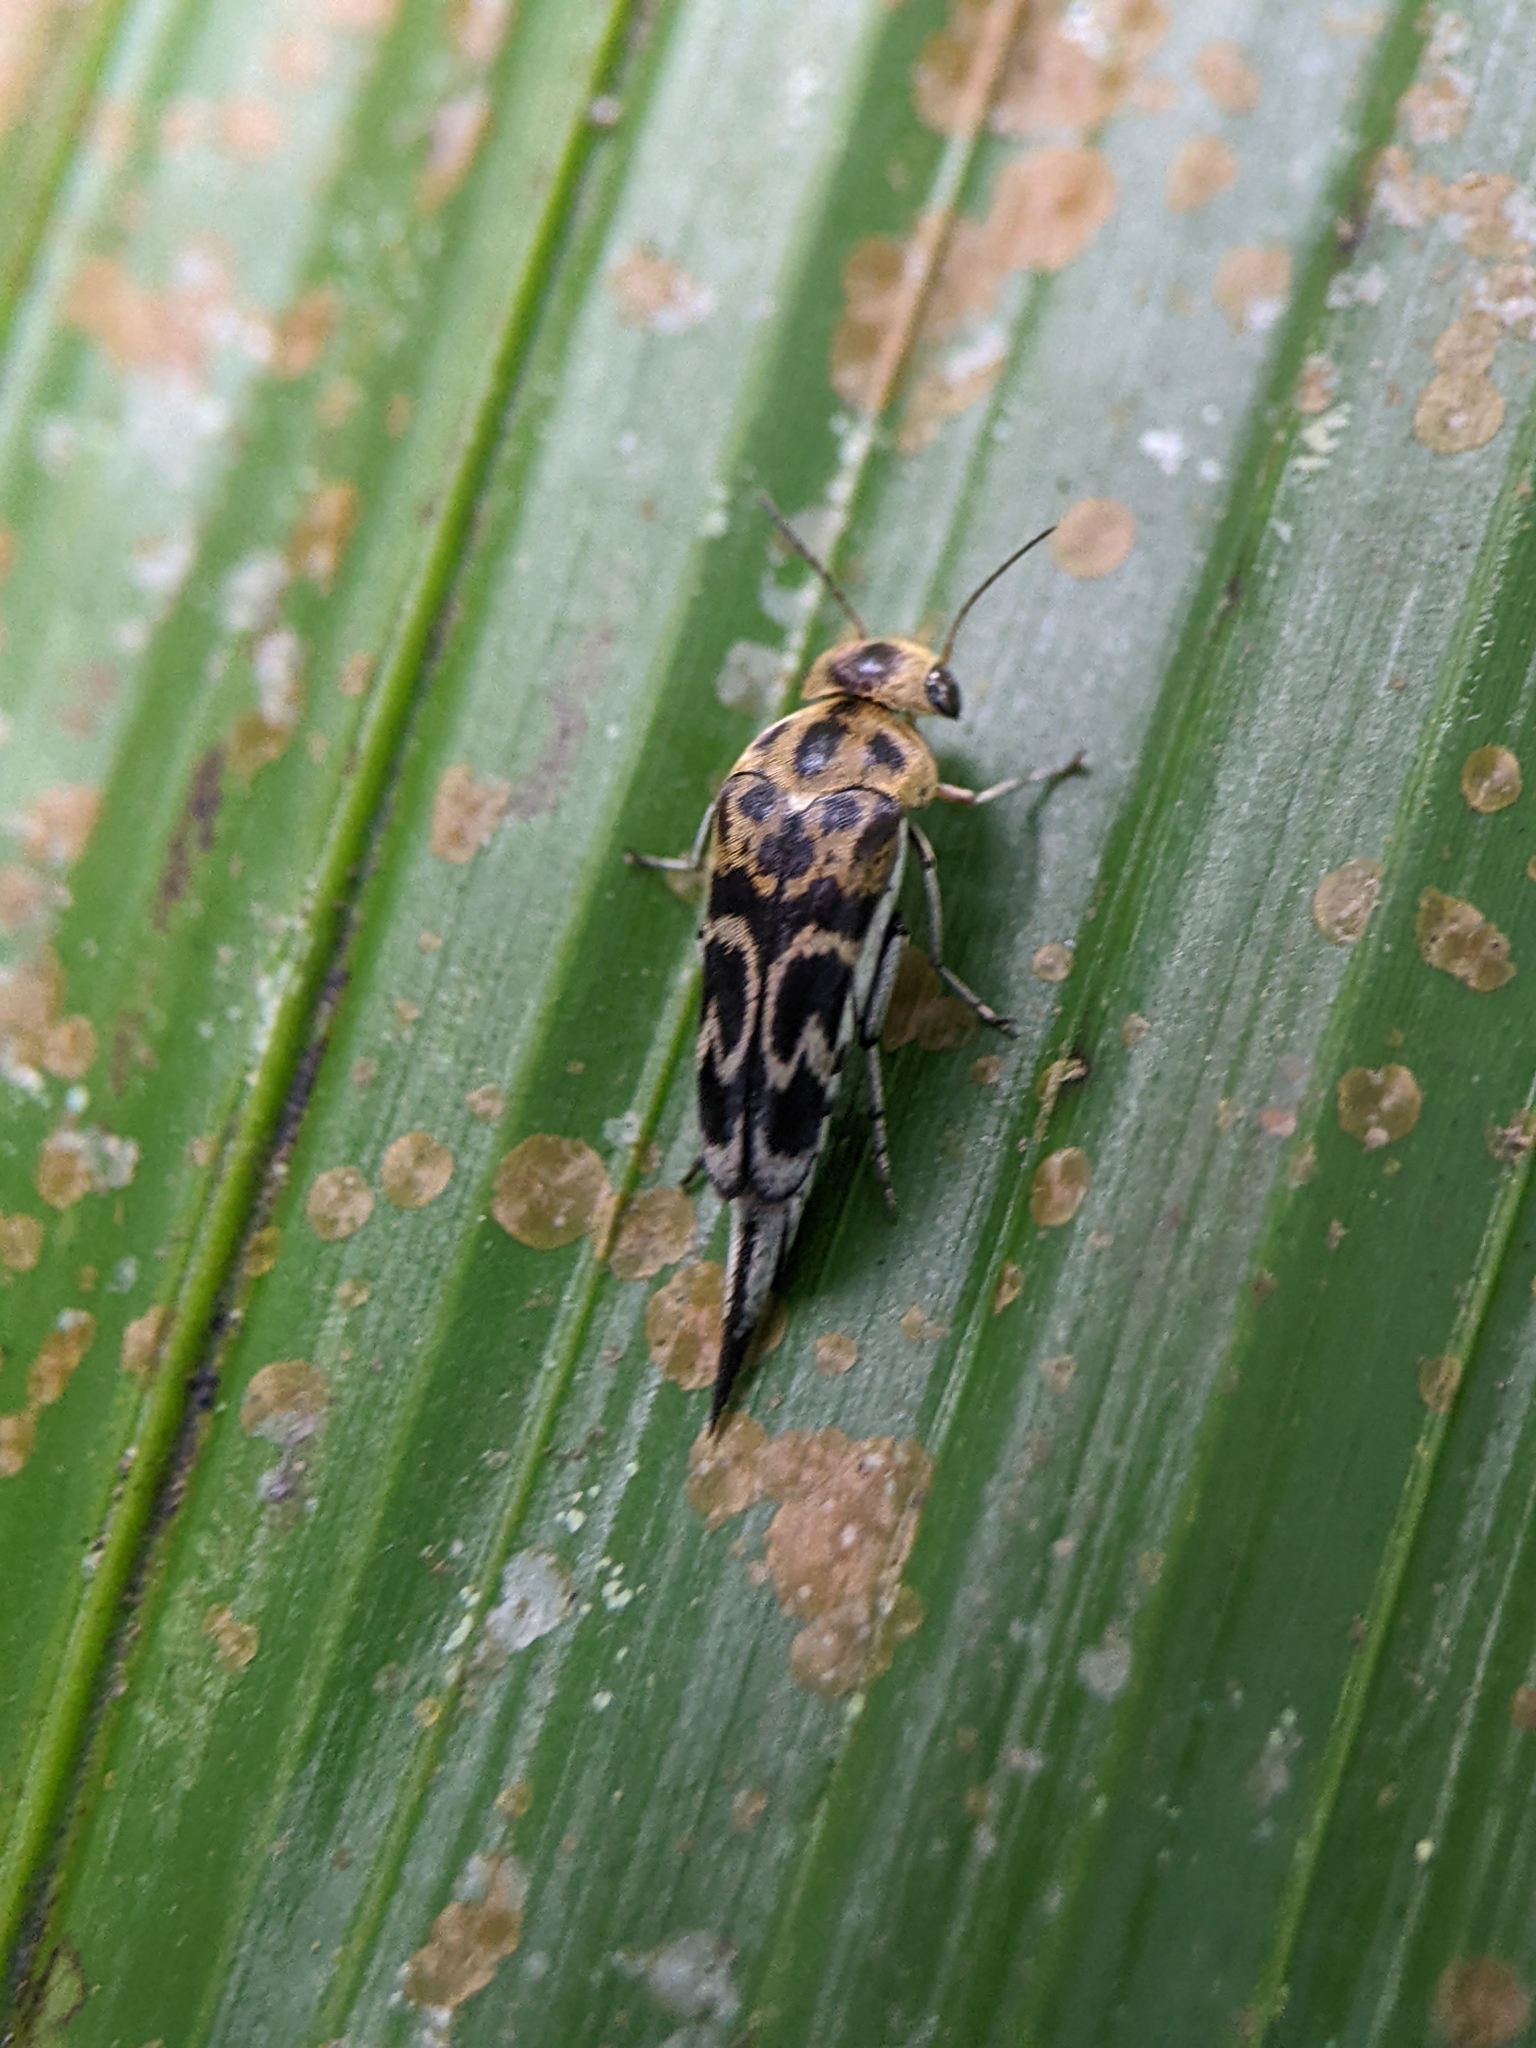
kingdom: Animalia
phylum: Arthropoda
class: Insecta
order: Coleoptera
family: Mordellidae
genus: Glipa
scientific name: Glipa
